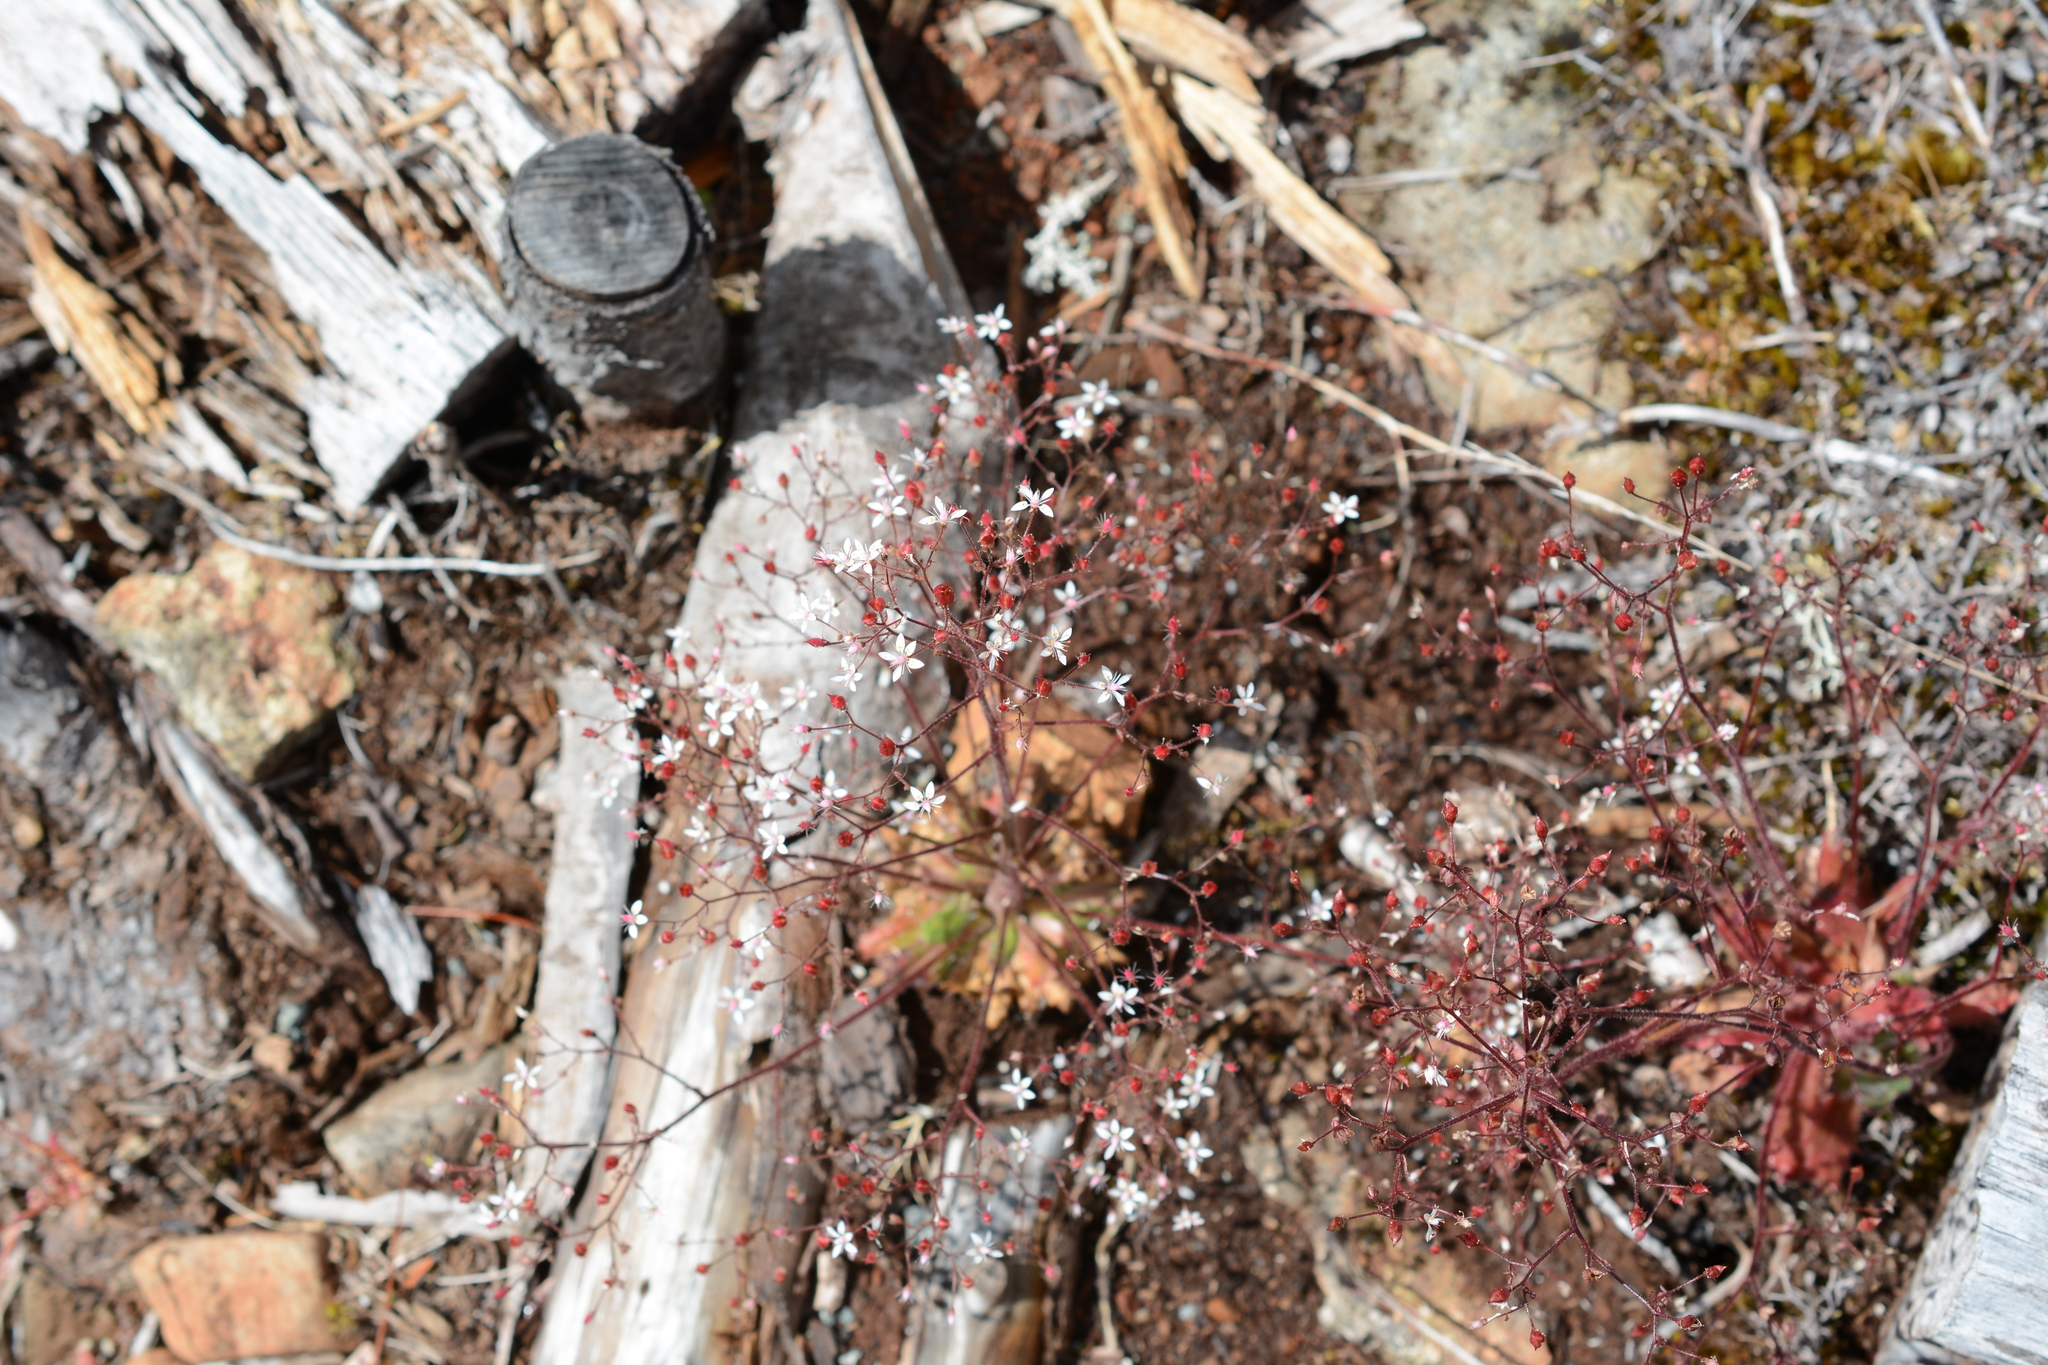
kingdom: Plantae
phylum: Tracheophyta
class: Magnoliopsida
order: Saxifragales
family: Saxifragaceae
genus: Micranthes
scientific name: Micranthes ferruginea
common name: Rusty saxifrage
